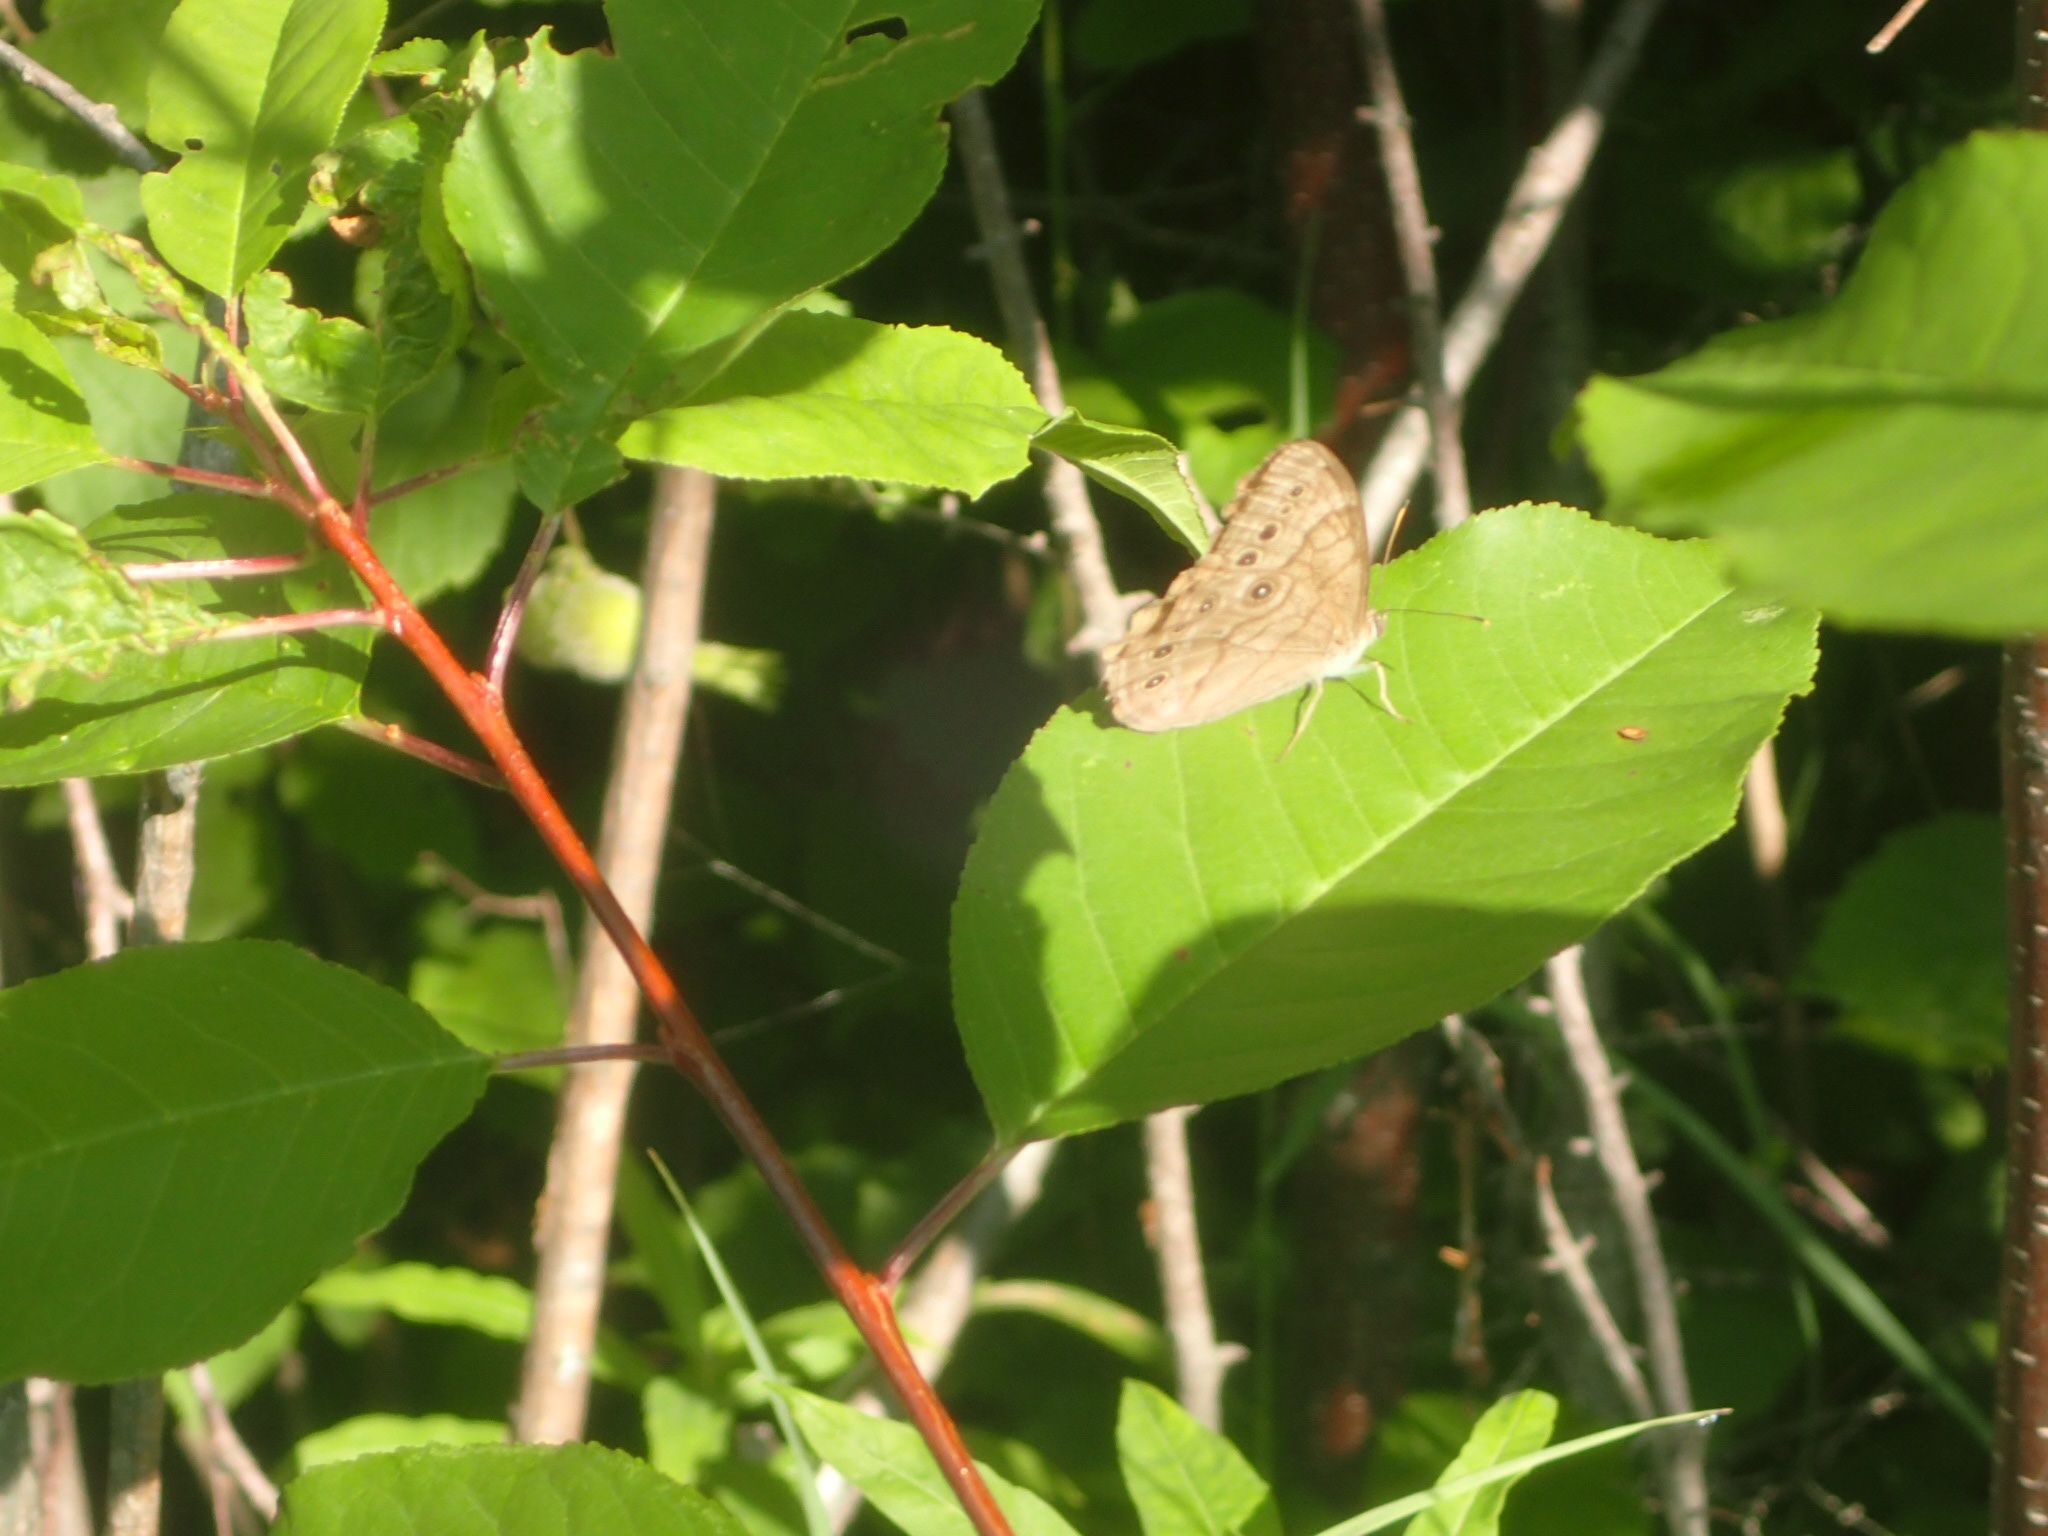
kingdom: Animalia
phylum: Arthropoda
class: Insecta
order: Lepidoptera
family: Nymphalidae
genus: Lethe
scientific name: Lethe anthedon
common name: Northern pearly-eye
